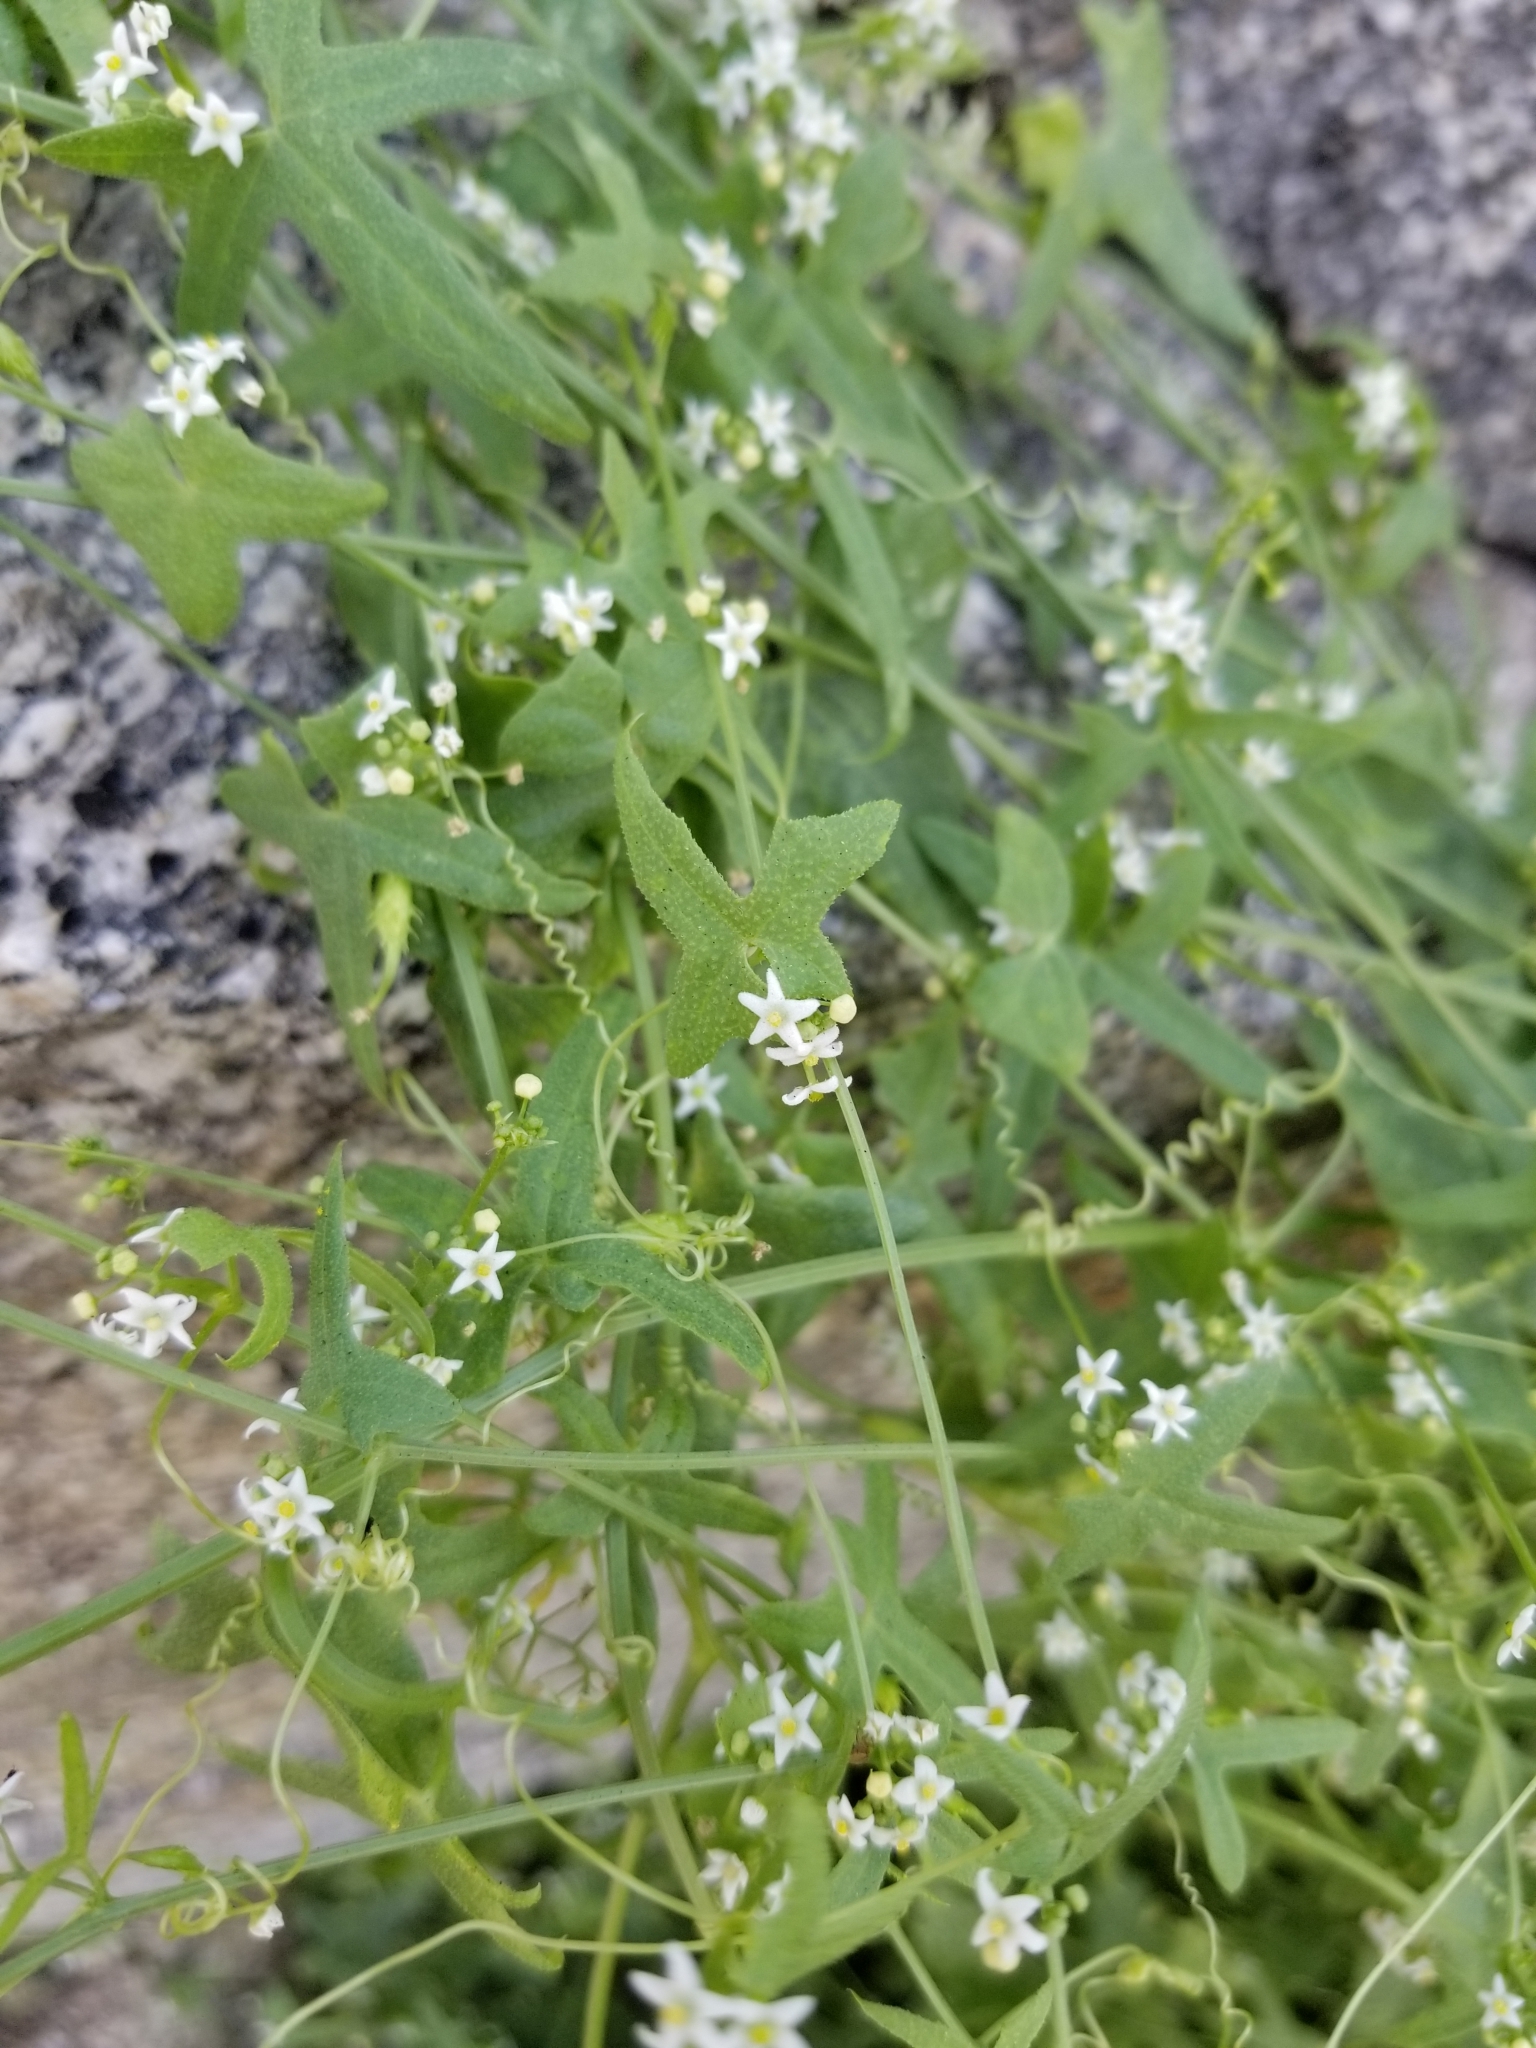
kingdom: Plantae
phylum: Tracheophyta
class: Magnoliopsida
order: Cucurbitales
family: Cucurbitaceae
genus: Echinopepon
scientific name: Echinopepon bigelovii
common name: Desert starvine
